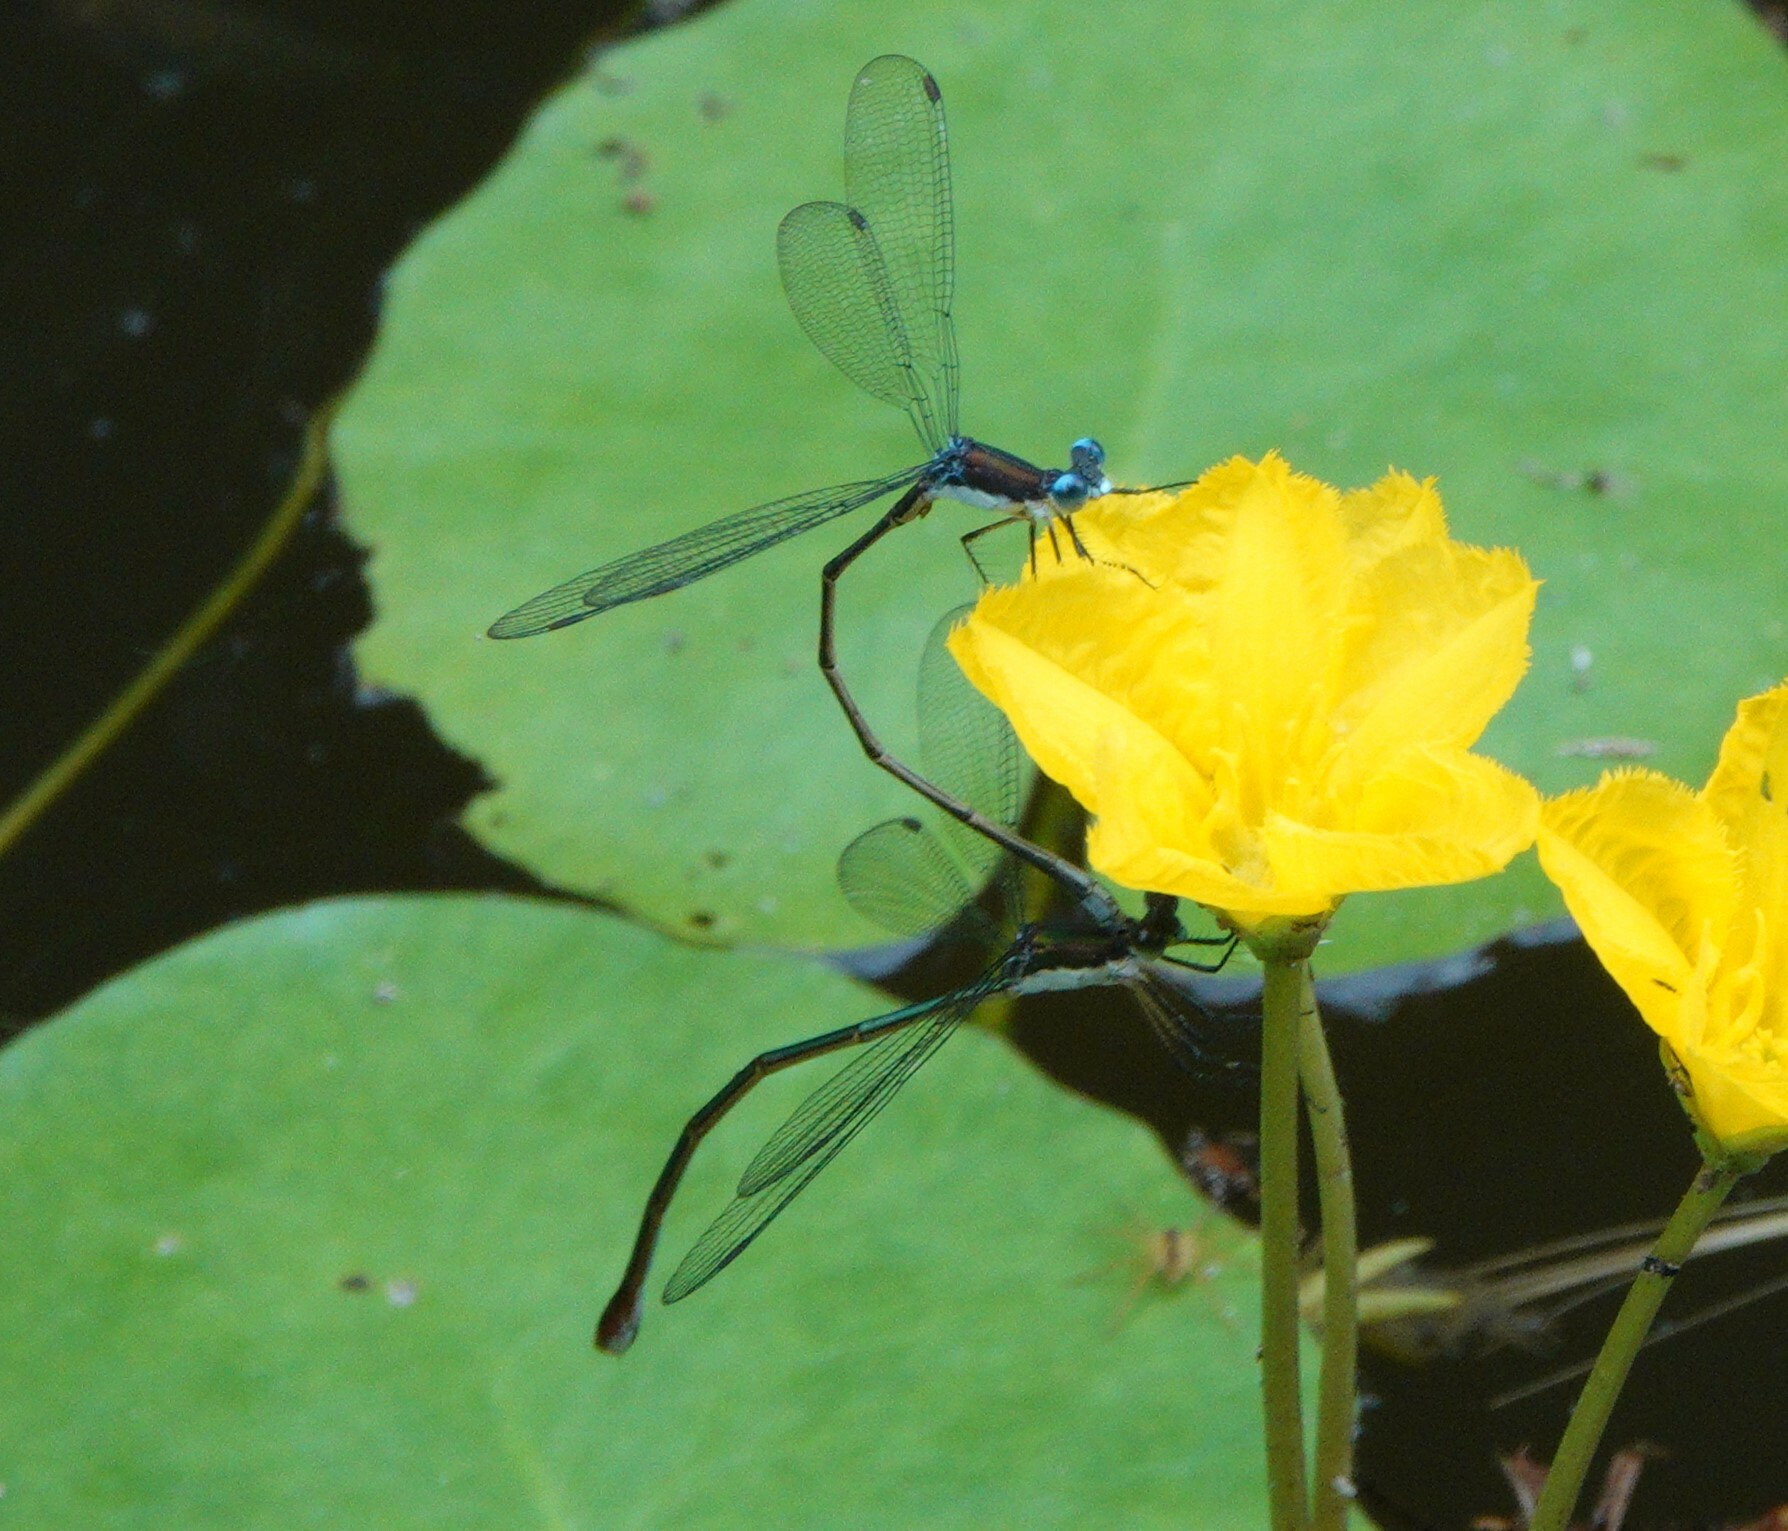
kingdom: Animalia
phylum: Arthropoda
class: Insecta
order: Odonata
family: Lestidae
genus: Lestes
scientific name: Lestes vigilax
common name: Swamp spreadwing
